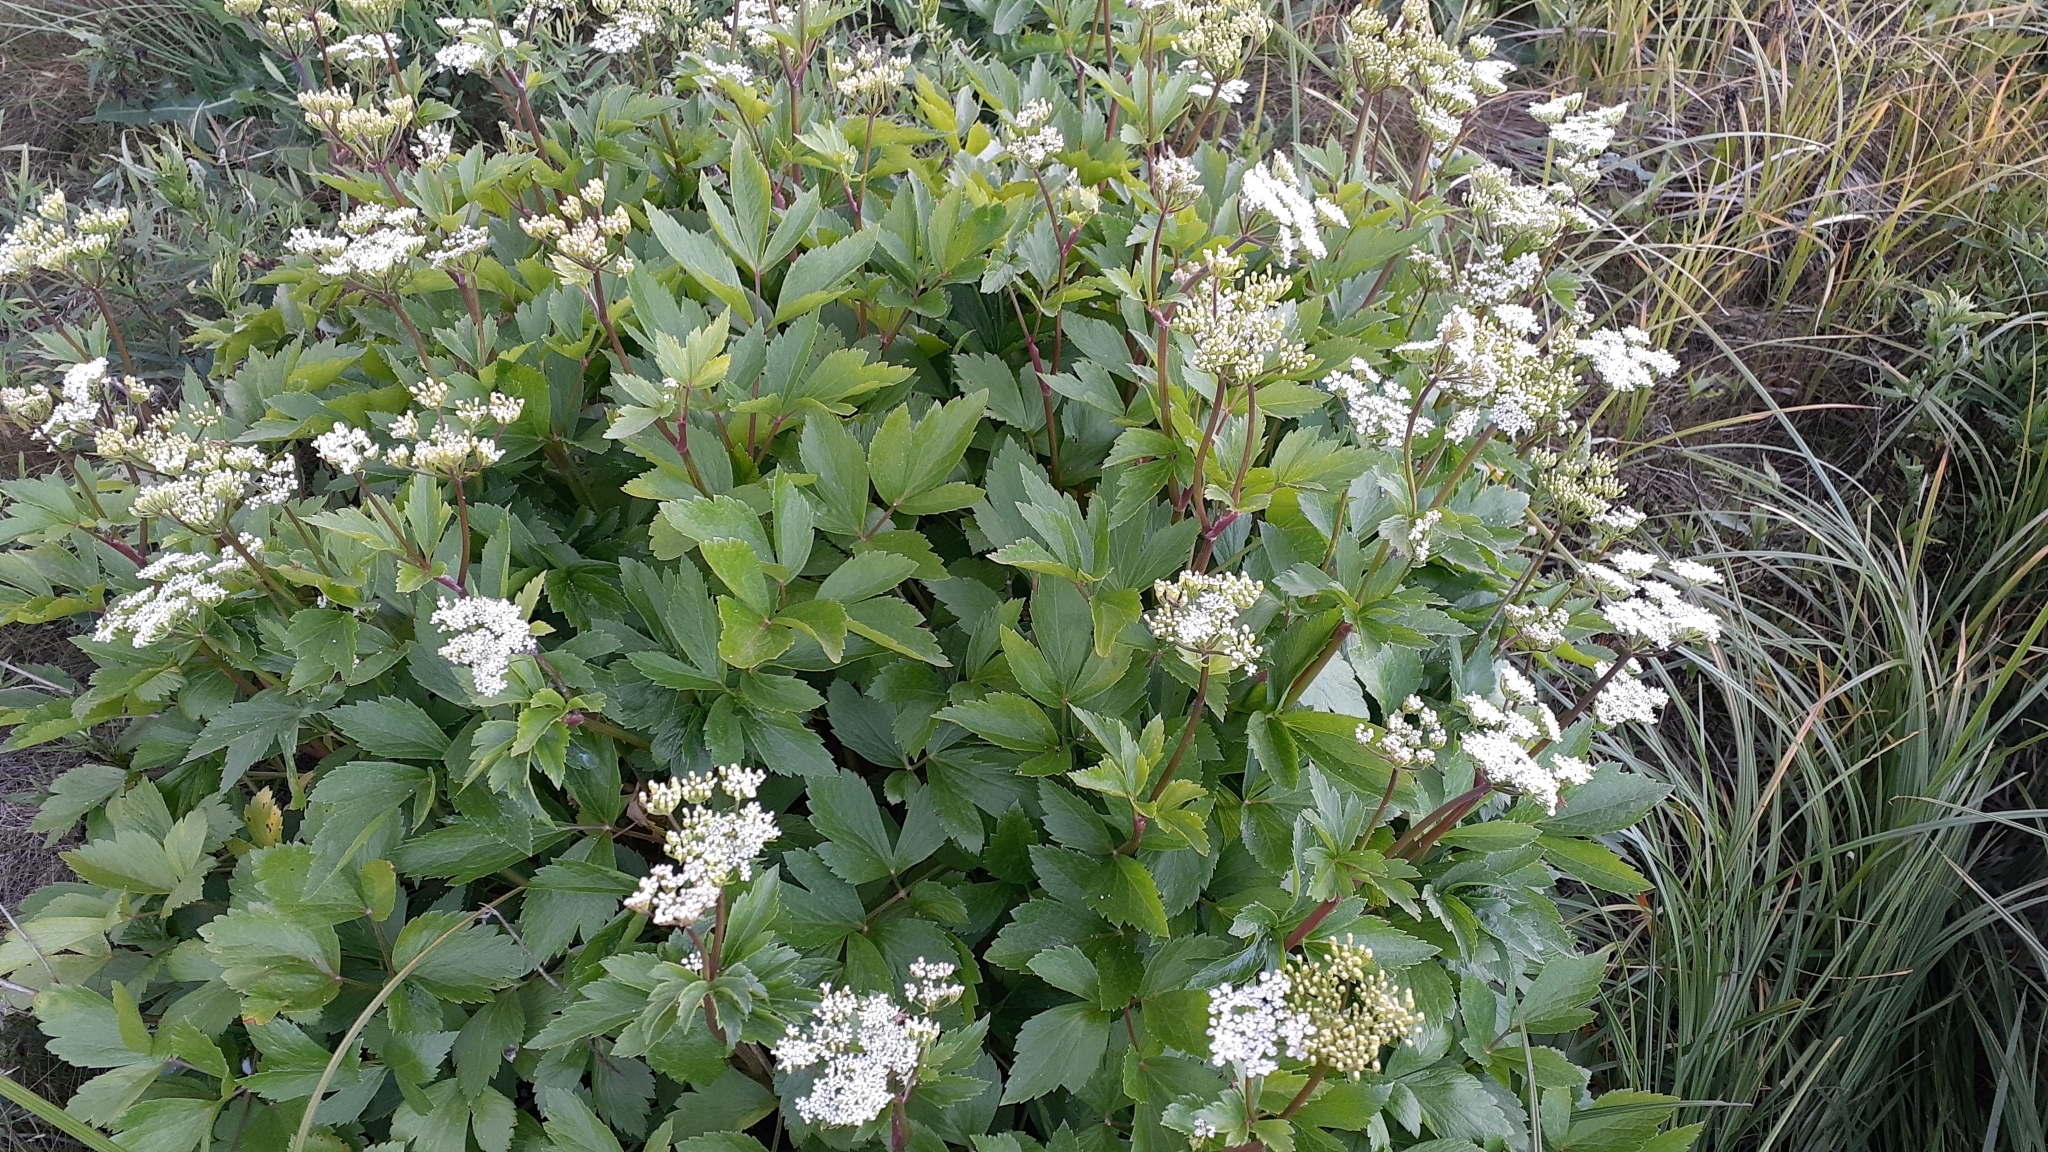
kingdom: Plantae
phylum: Tracheophyta
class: Magnoliopsida
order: Apiales
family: Apiaceae
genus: Ligusticum
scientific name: Ligusticum scothicum
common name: Beach lovage
